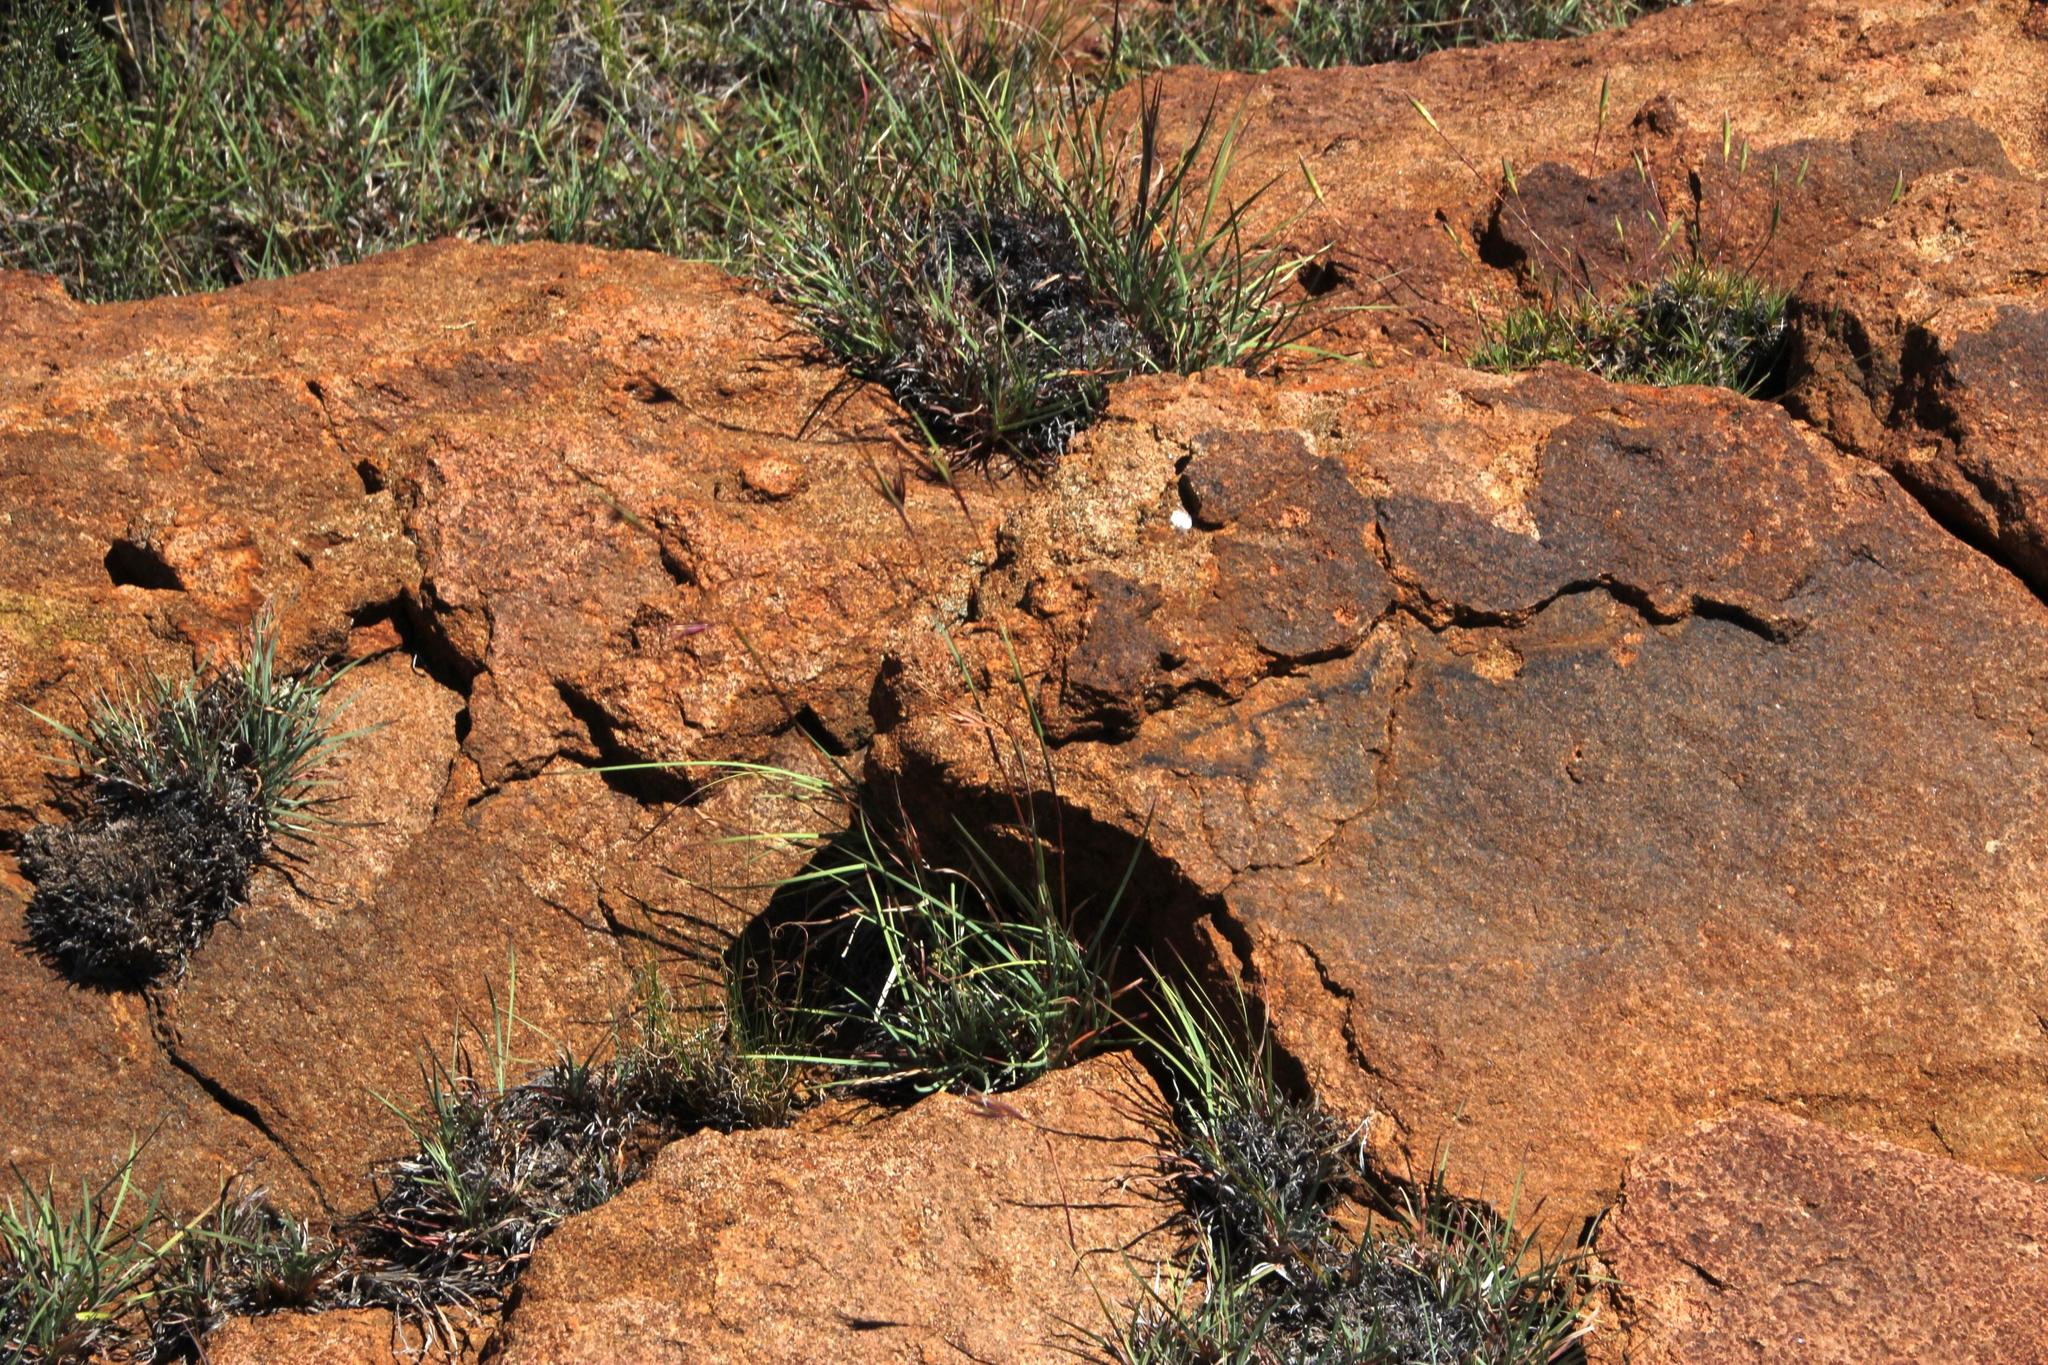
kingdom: Plantae
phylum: Tracheophyta
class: Liliopsida
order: Poales
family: Poaceae
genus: Themeda
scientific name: Themeda triandra
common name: Kangaroo grass
